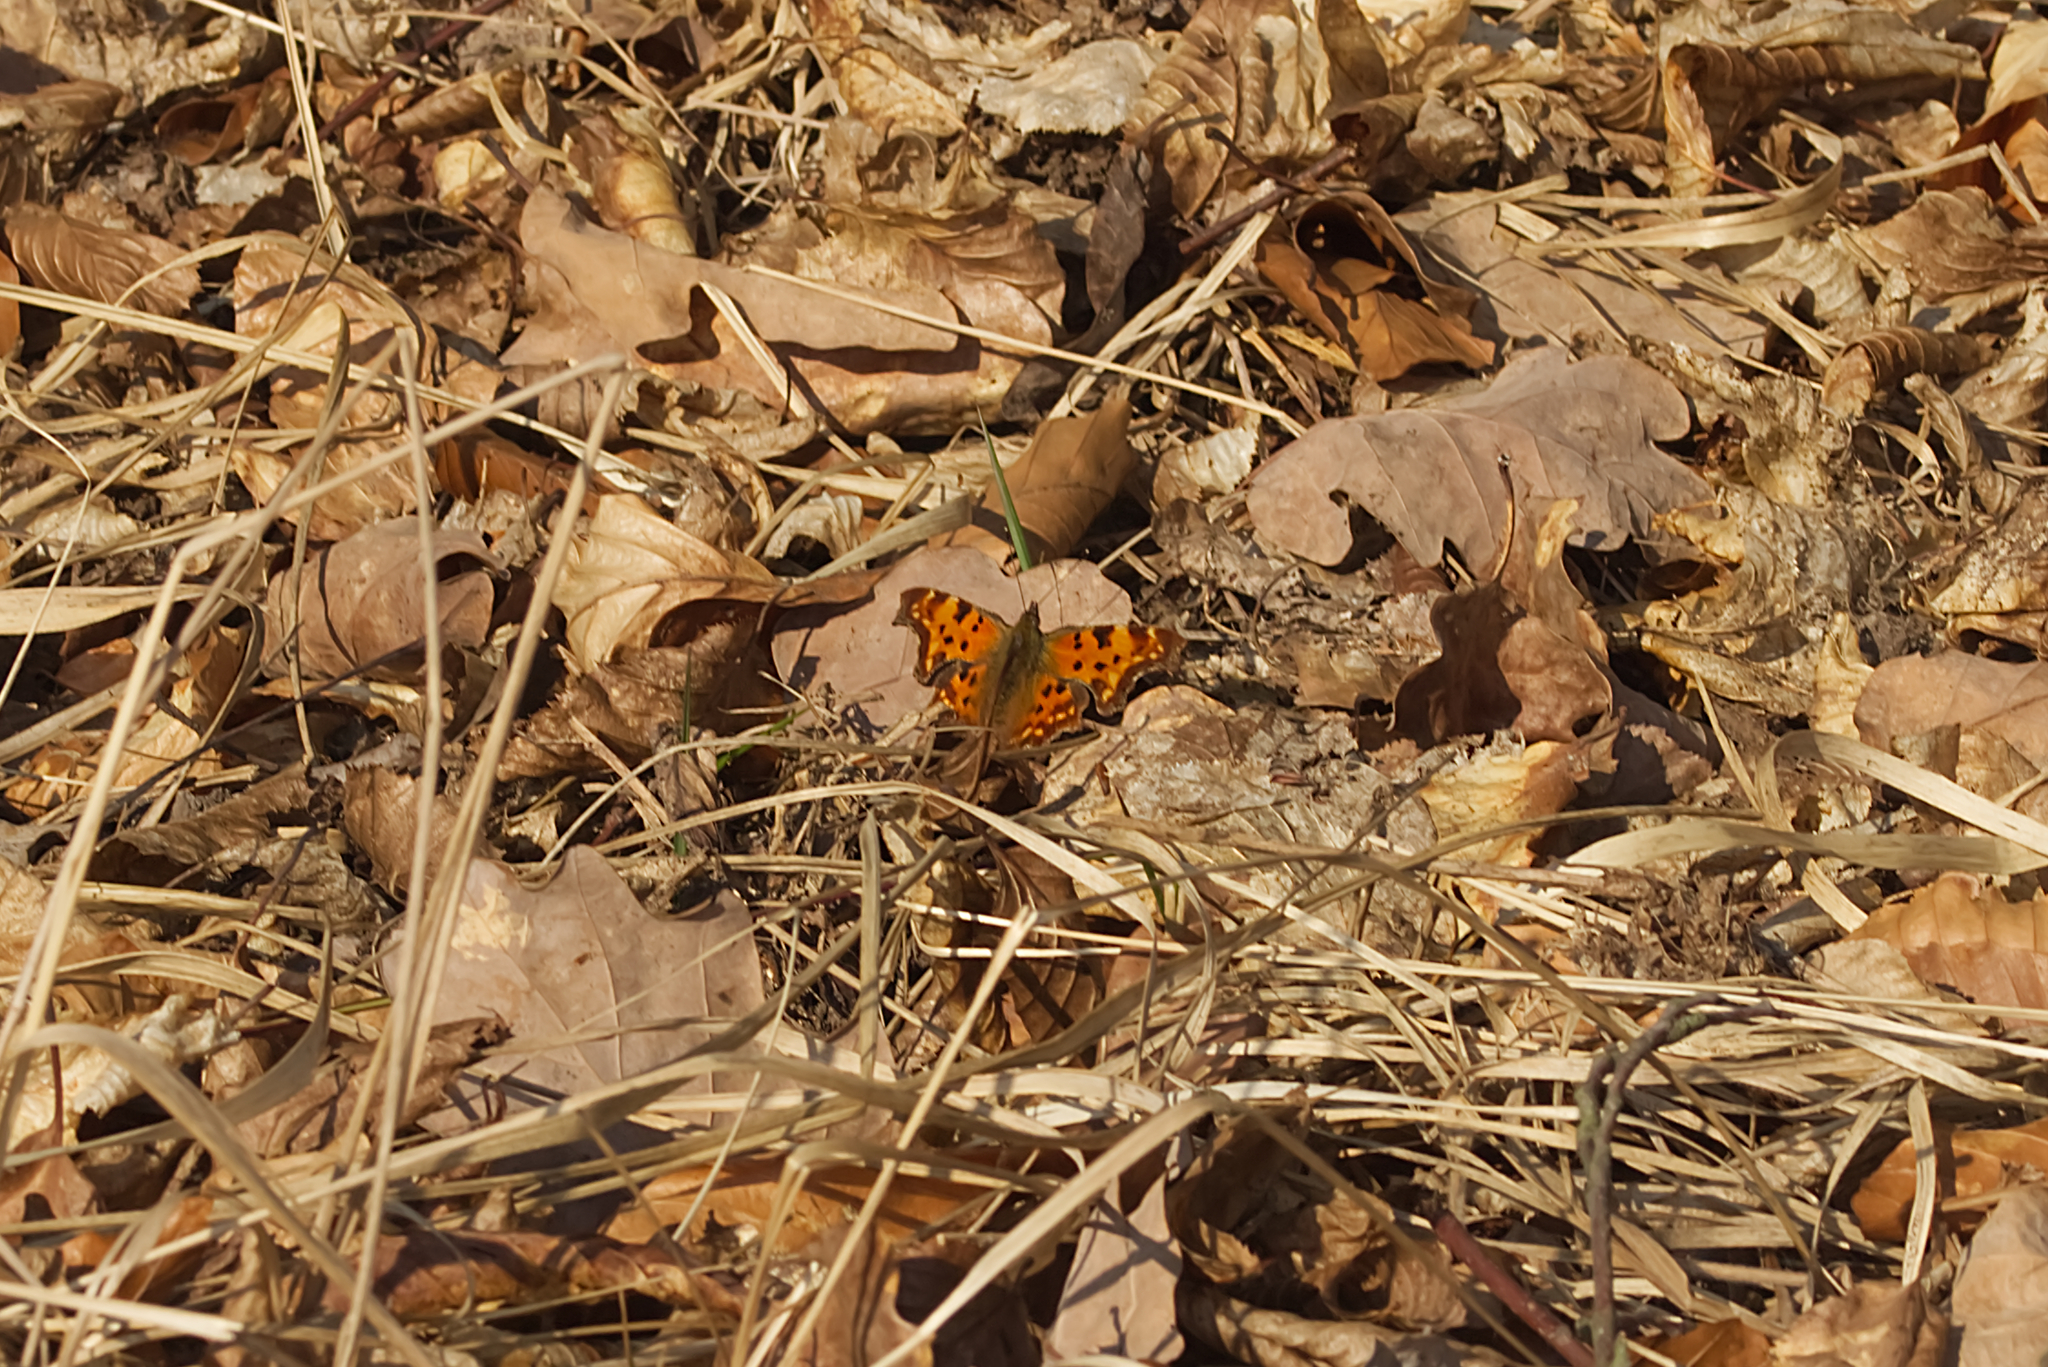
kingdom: Animalia
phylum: Arthropoda
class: Insecta
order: Lepidoptera
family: Nymphalidae
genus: Polygonia
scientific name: Polygonia c-album
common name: Comma
